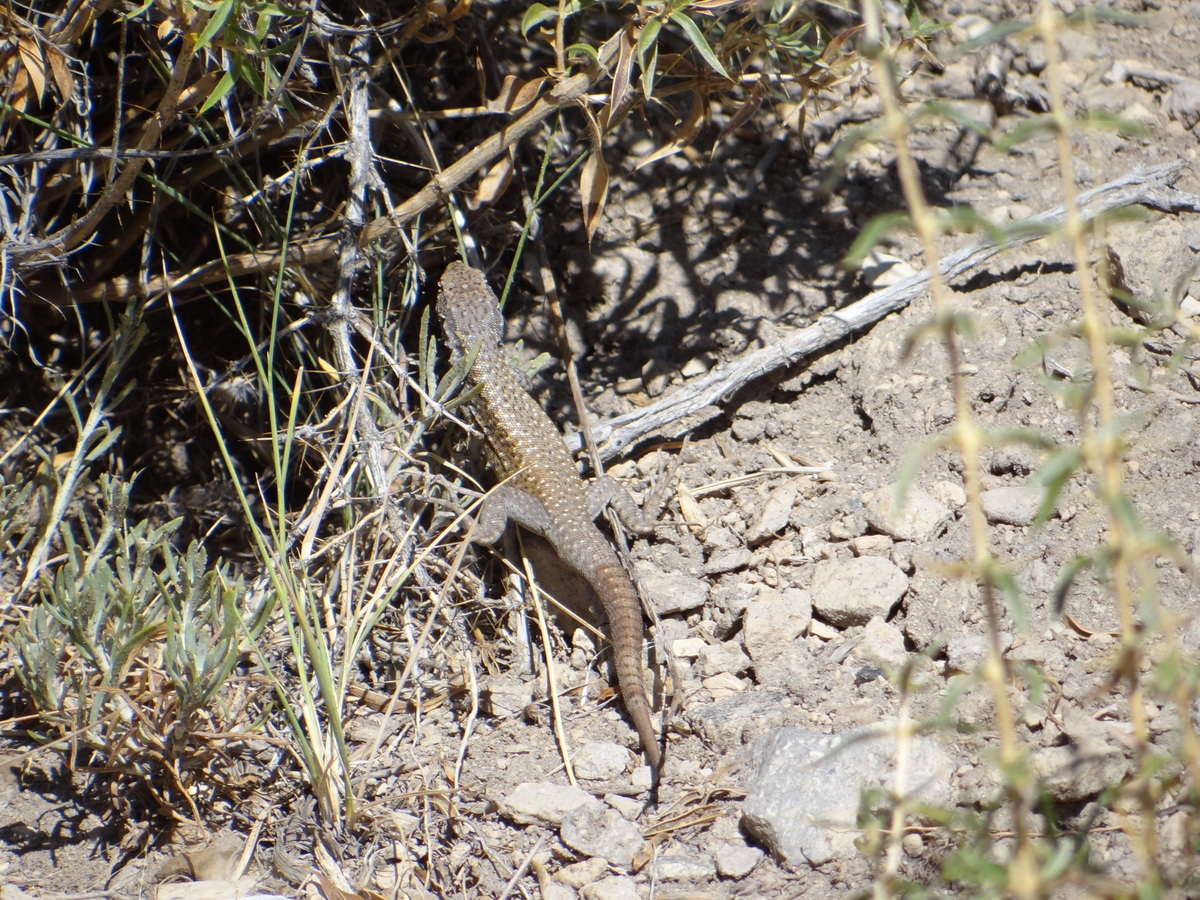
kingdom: Animalia
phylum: Chordata
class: Squamata
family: Liolaemidae
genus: Liolaemus
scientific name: Liolaemus smaug
